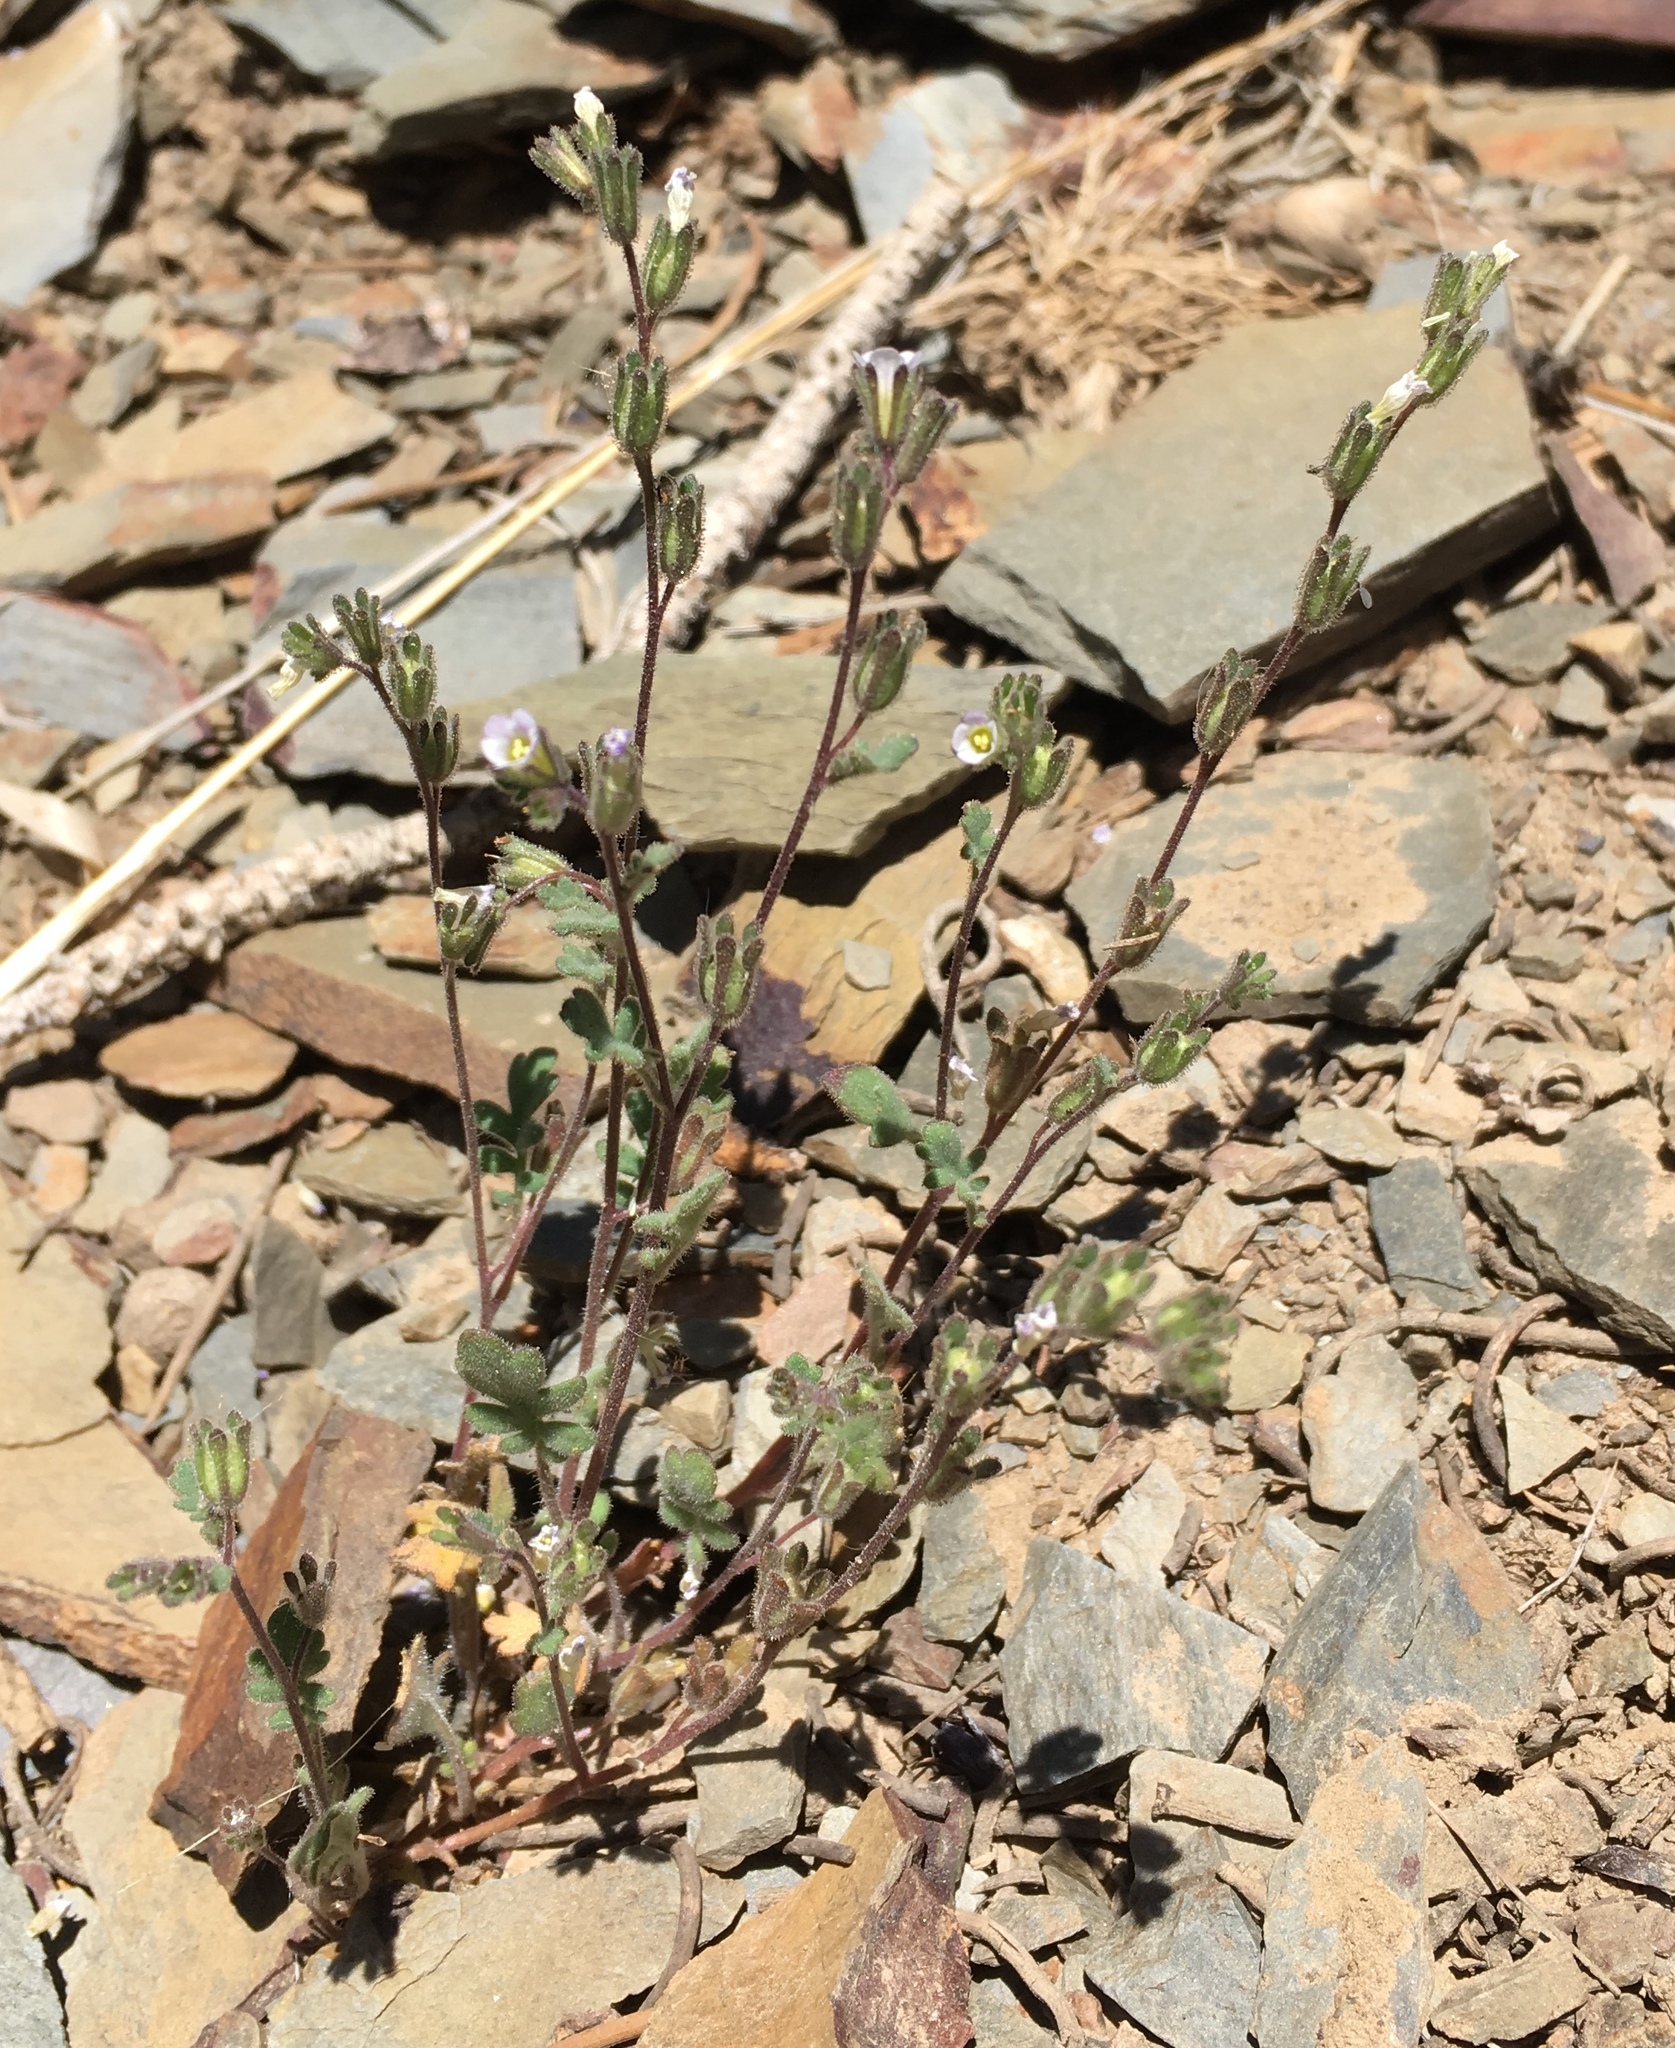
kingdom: Plantae
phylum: Tracheophyta
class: Magnoliopsida
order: Boraginales
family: Hydrophyllaceae
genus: Phacelia
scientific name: Phacelia lemmonii
